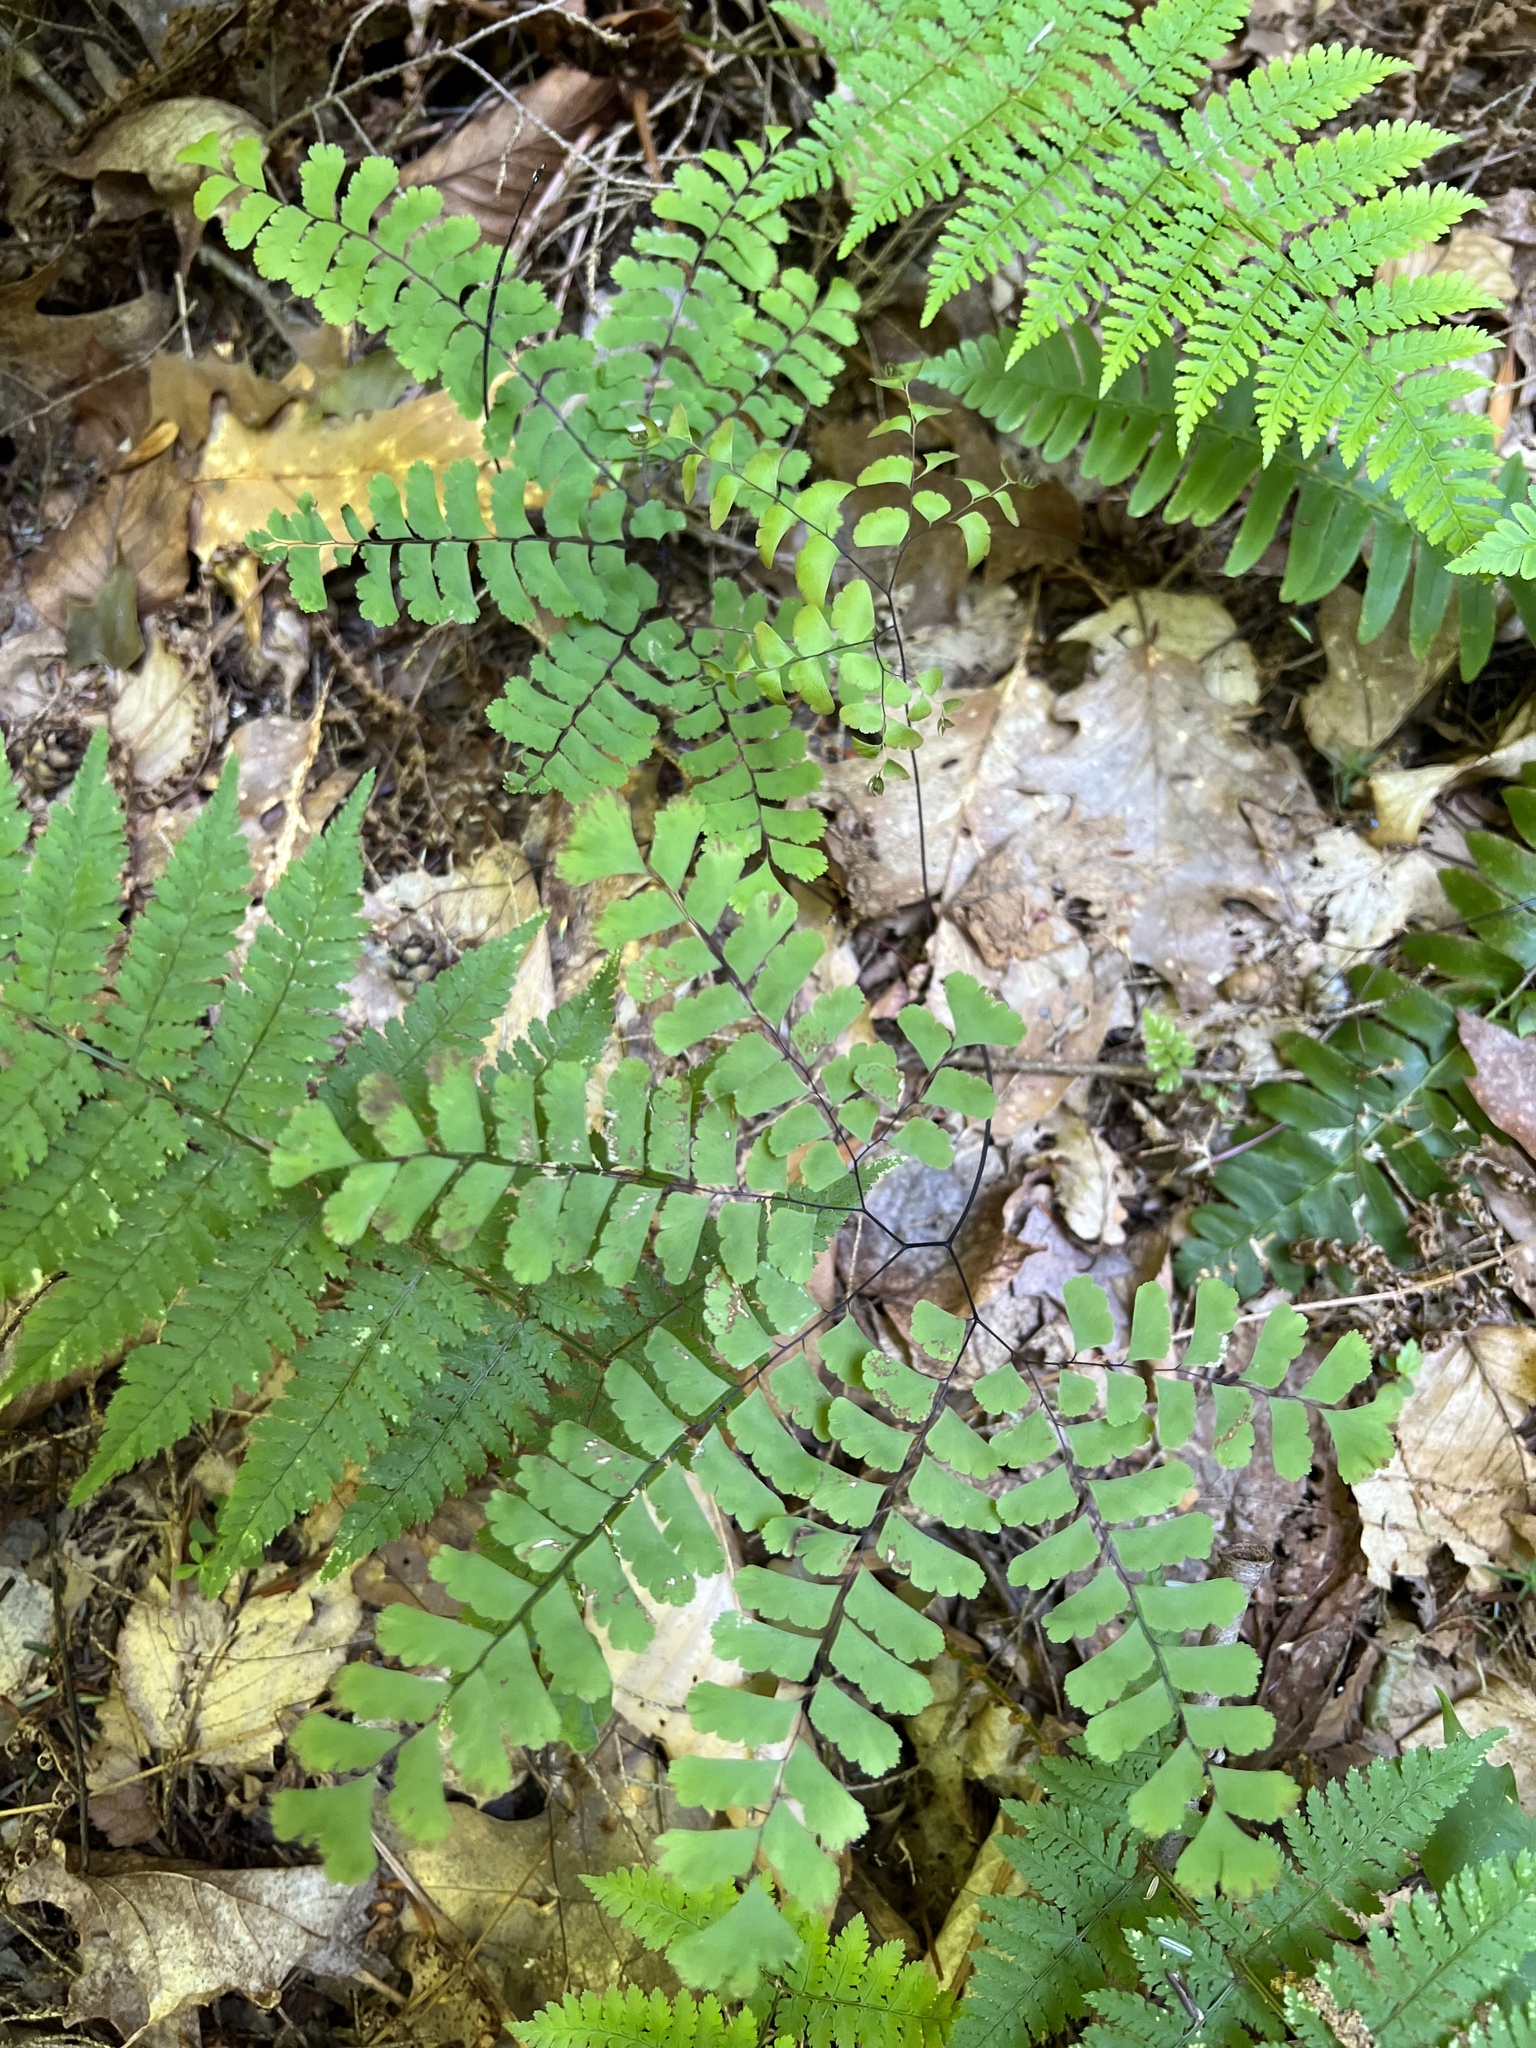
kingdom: Plantae
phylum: Tracheophyta
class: Polypodiopsida
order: Polypodiales
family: Pteridaceae
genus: Adiantum
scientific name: Adiantum pedatum
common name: Five-finger fern
